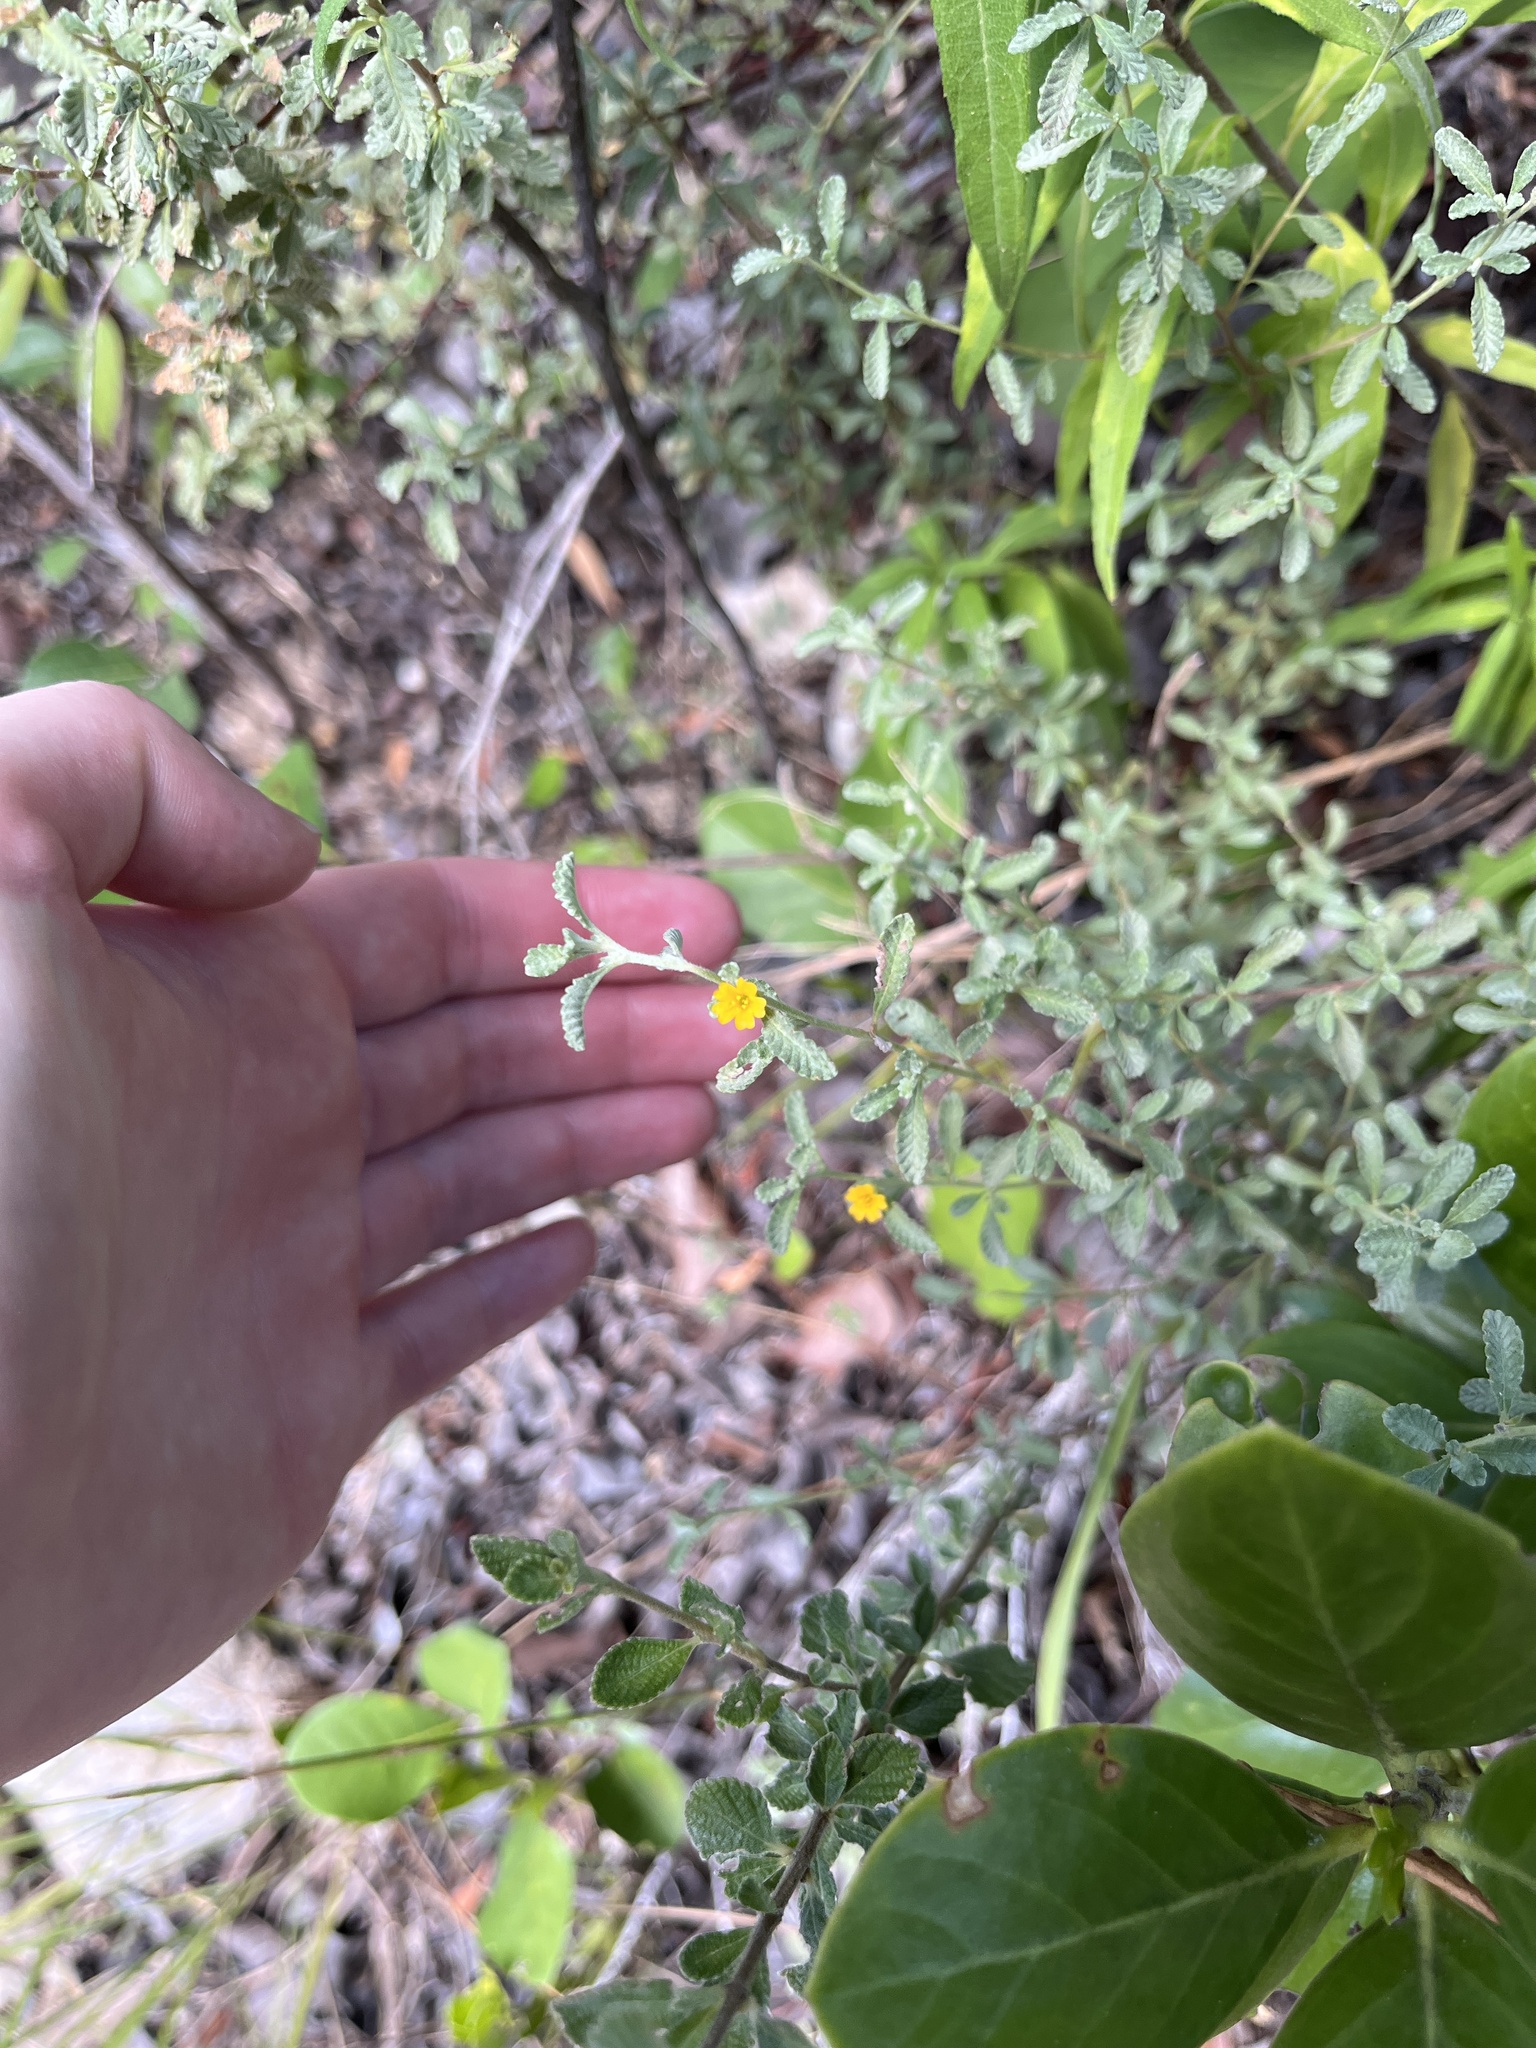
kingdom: Plantae
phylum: Tracheophyta
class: Magnoliopsida
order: Malpighiales
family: Turneraceae
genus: Turnera
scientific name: Turnera diffusa
